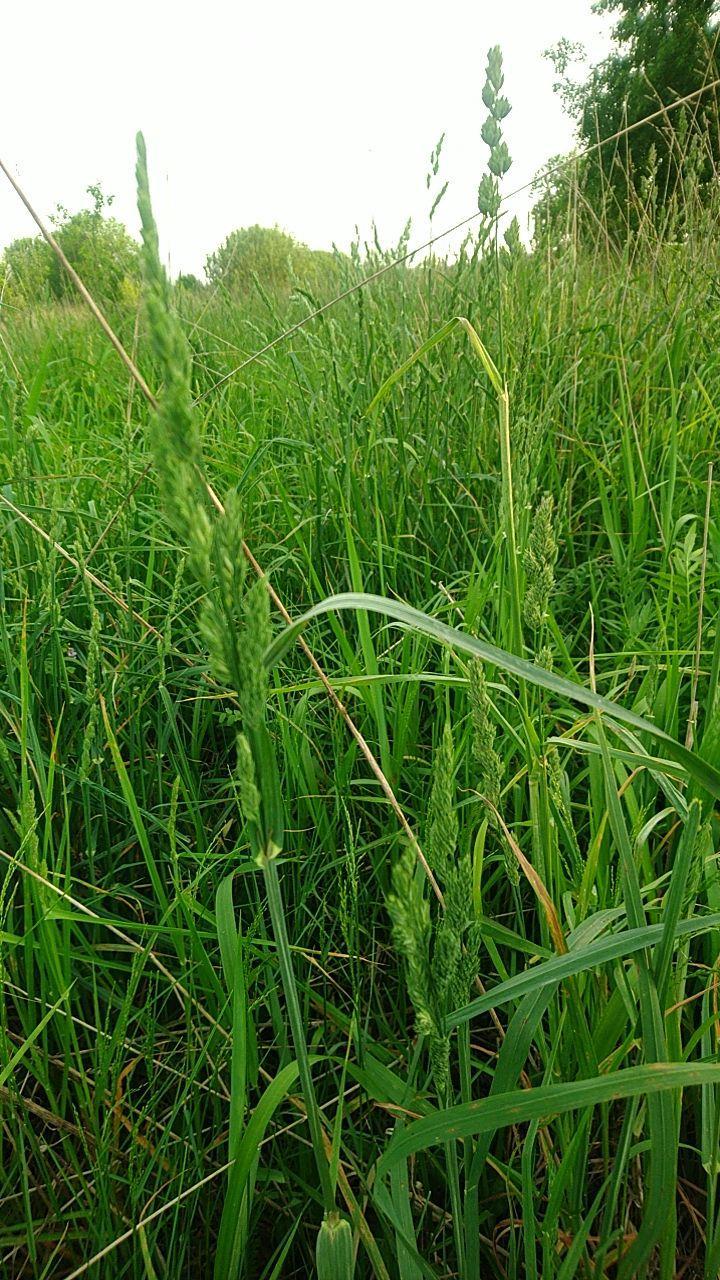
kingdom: Plantae
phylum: Tracheophyta
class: Liliopsida
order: Poales
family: Poaceae
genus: Dactylis
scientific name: Dactylis glomerata
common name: Orchardgrass
